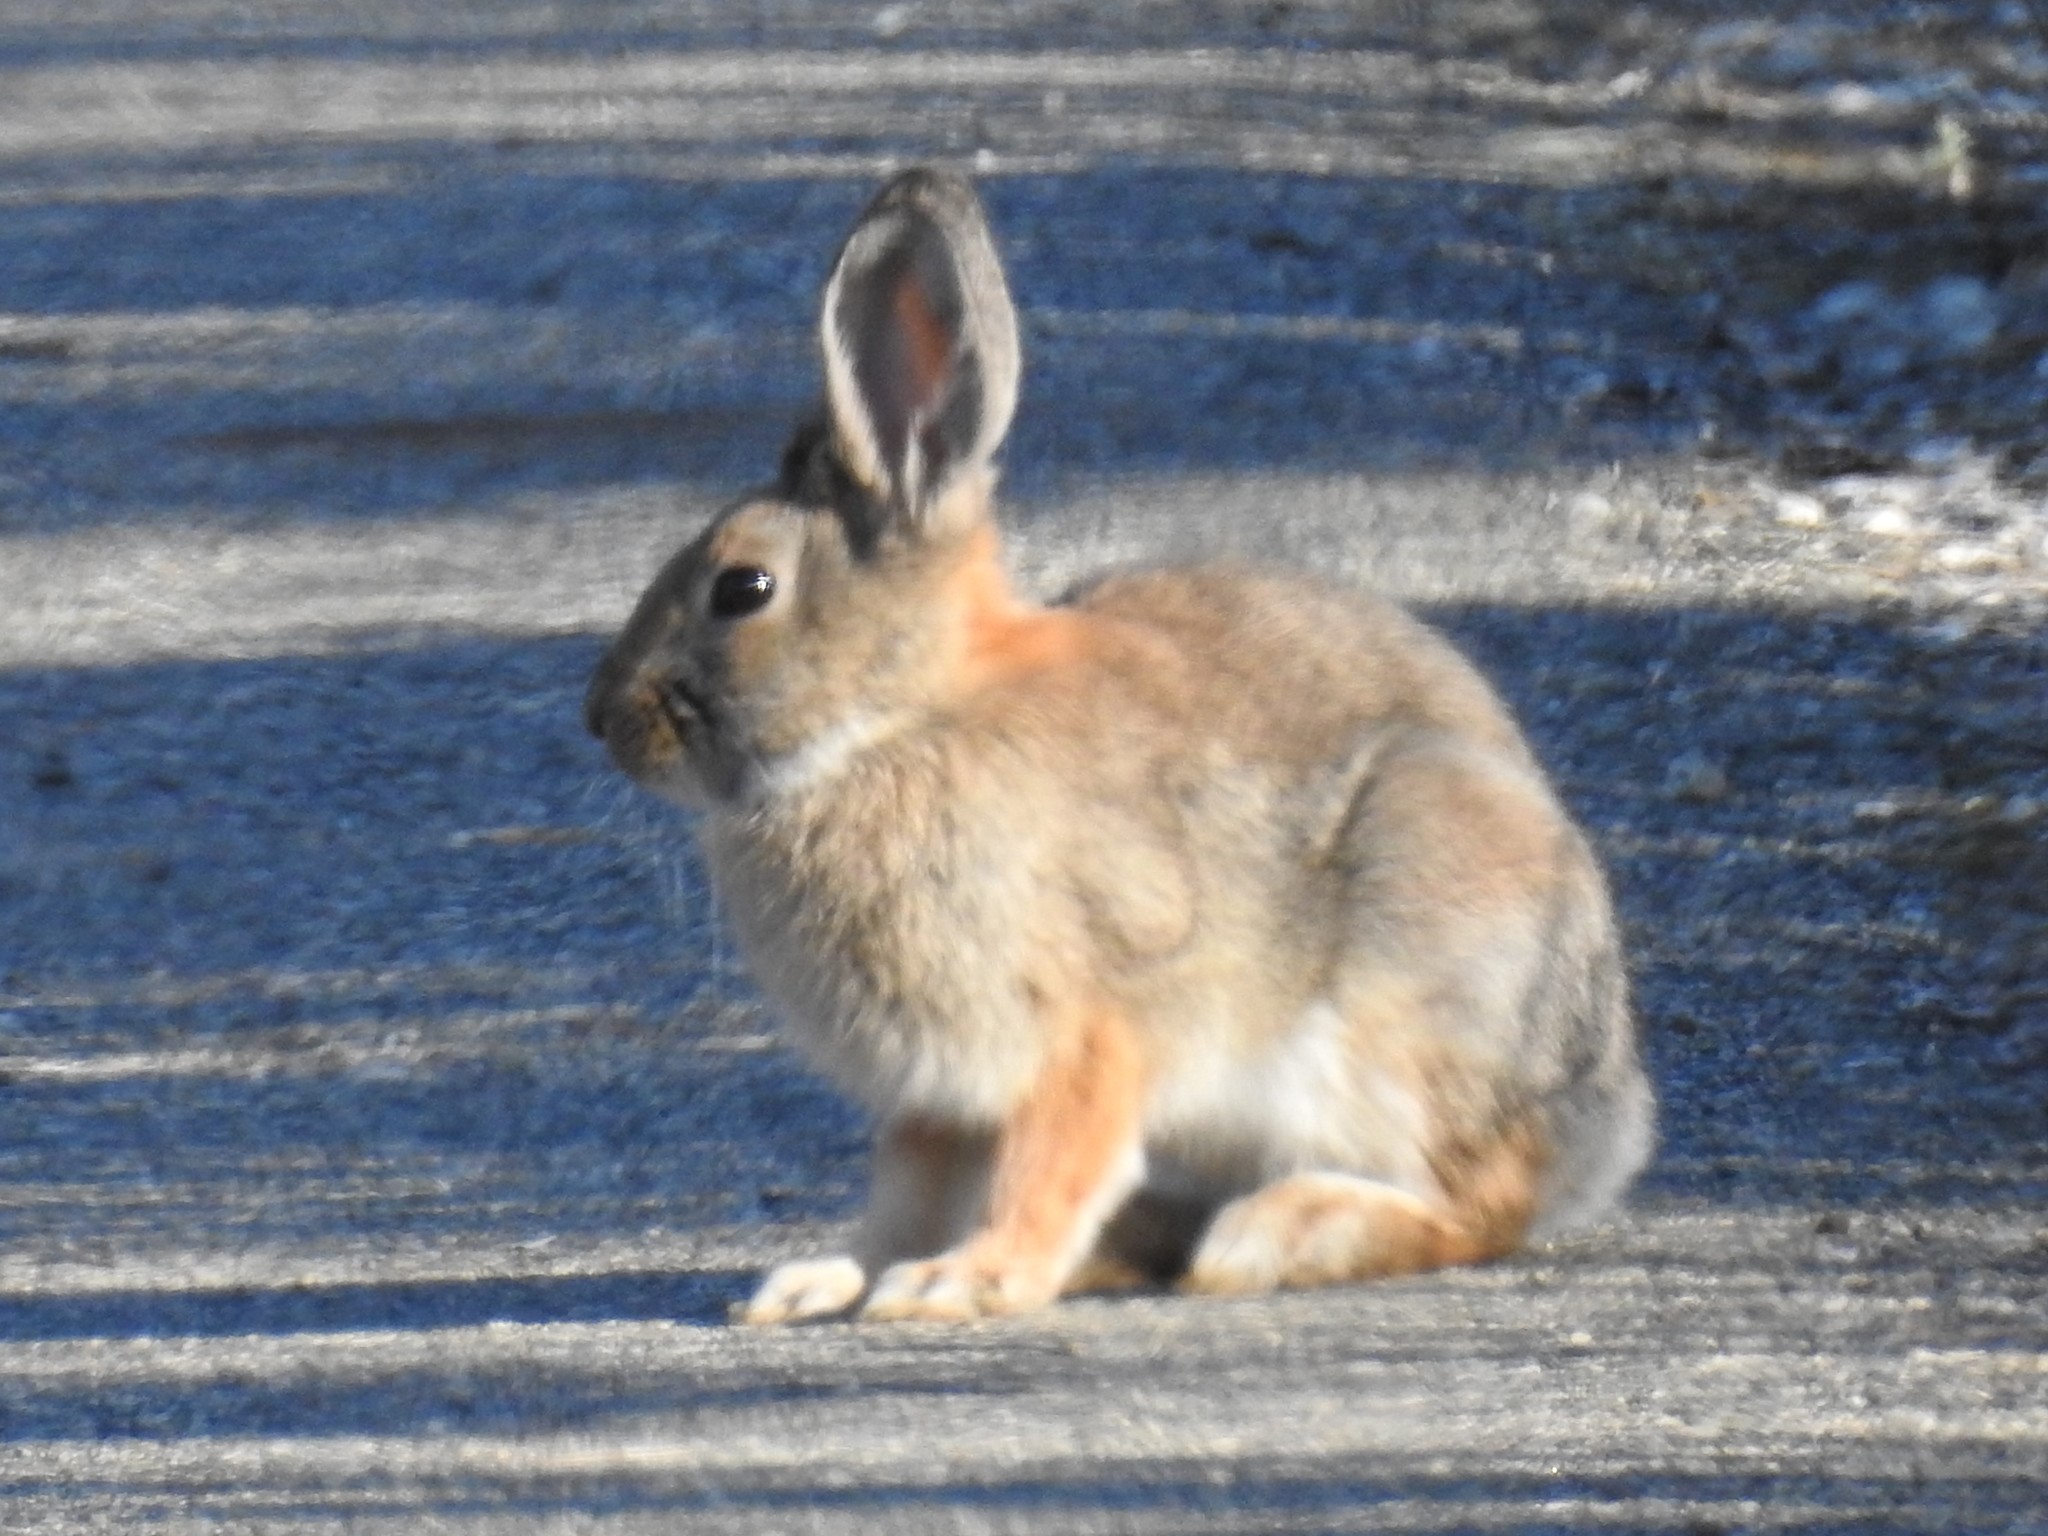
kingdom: Animalia
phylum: Chordata
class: Mammalia
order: Lagomorpha
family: Leporidae
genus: Lepus
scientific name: Lepus americanus
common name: Snowshoe hare
